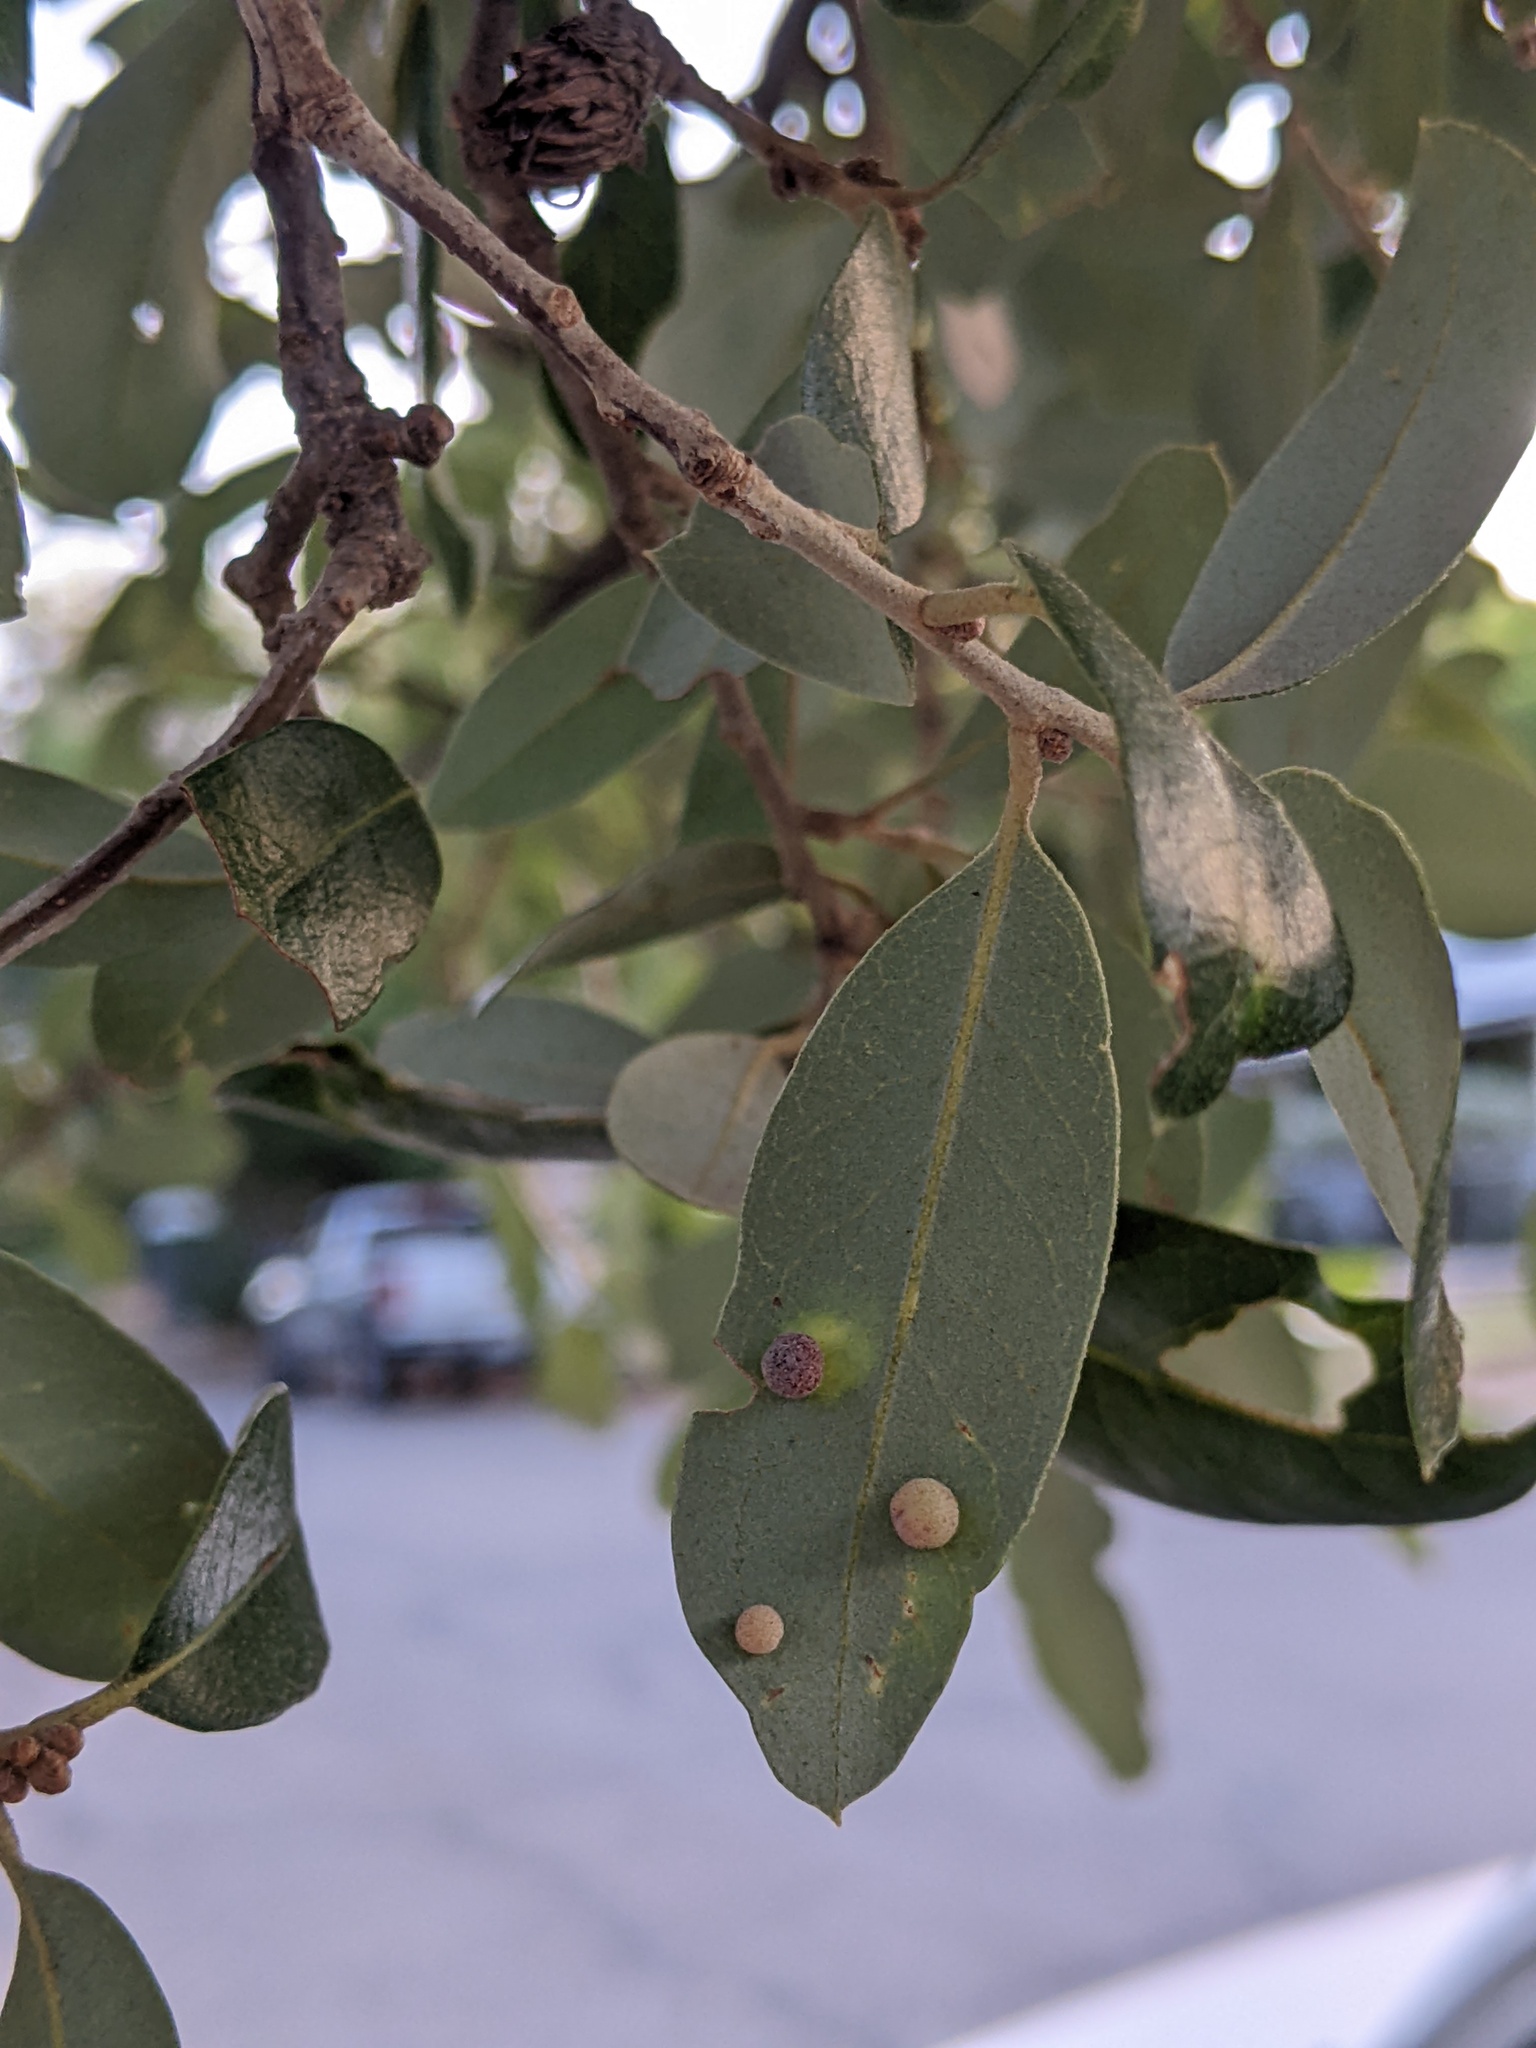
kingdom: Animalia
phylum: Arthropoda
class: Insecta
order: Hymenoptera
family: Cynipidae
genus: Belonocnema
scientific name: Belonocnema kinseyi
